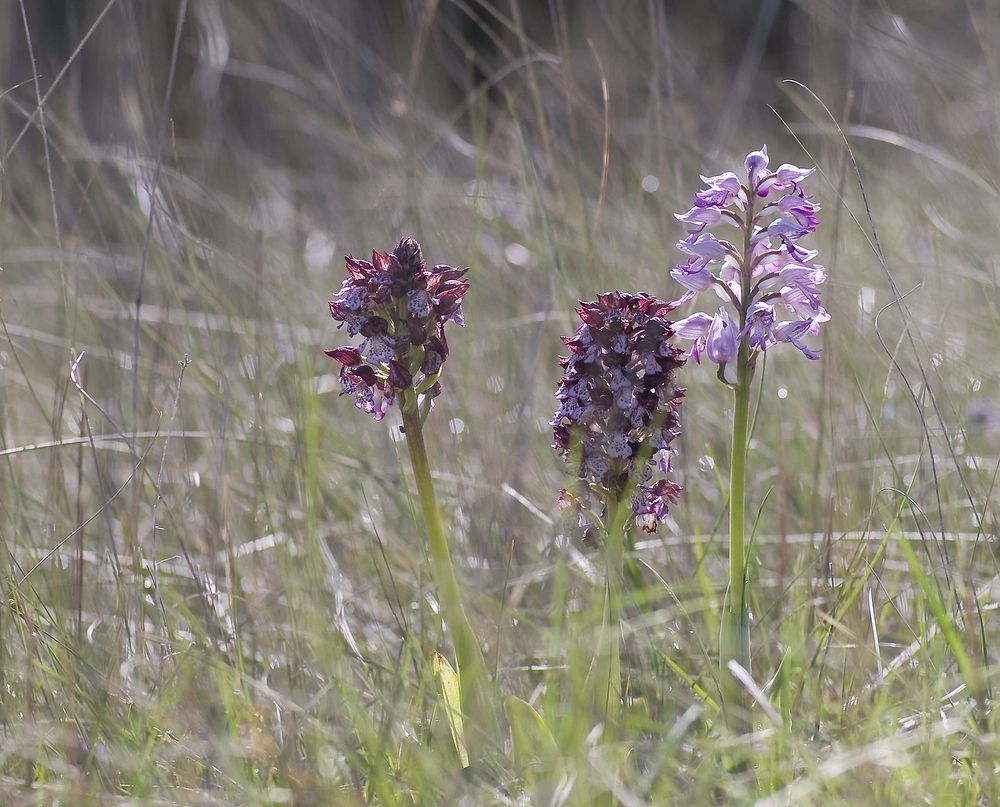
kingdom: Plantae
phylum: Tracheophyta
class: Liliopsida
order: Asparagales
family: Orchidaceae
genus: Orchis
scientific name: Orchis purpurea
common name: Lady orchid
